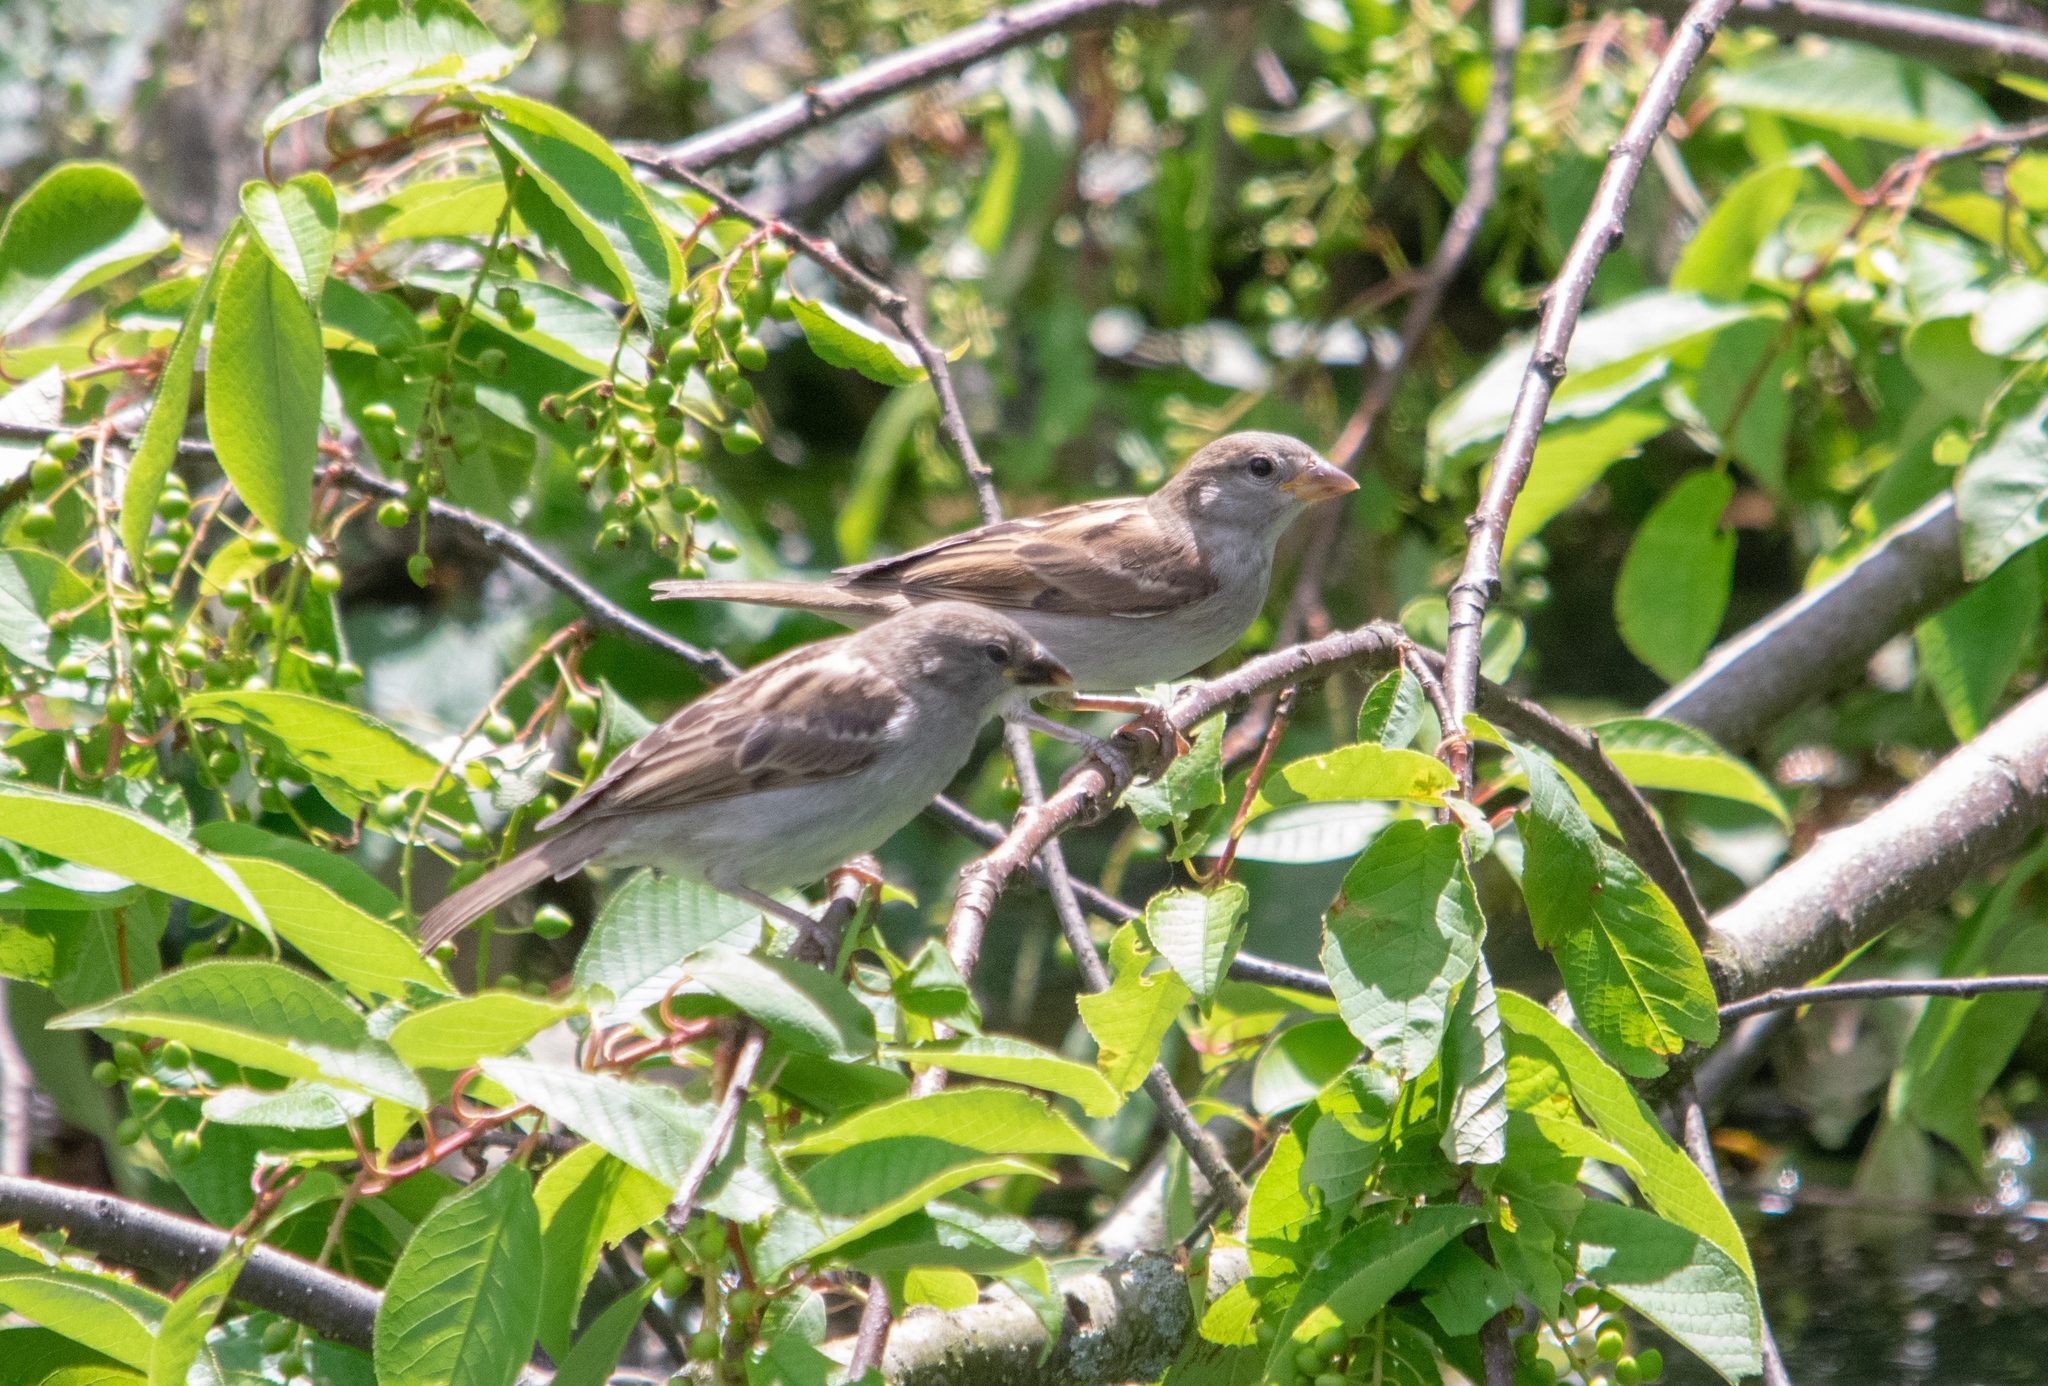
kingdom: Animalia
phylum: Chordata
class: Aves
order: Passeriformes
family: Passeridae
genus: Passer
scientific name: Passer domesticus
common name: House sparrow
